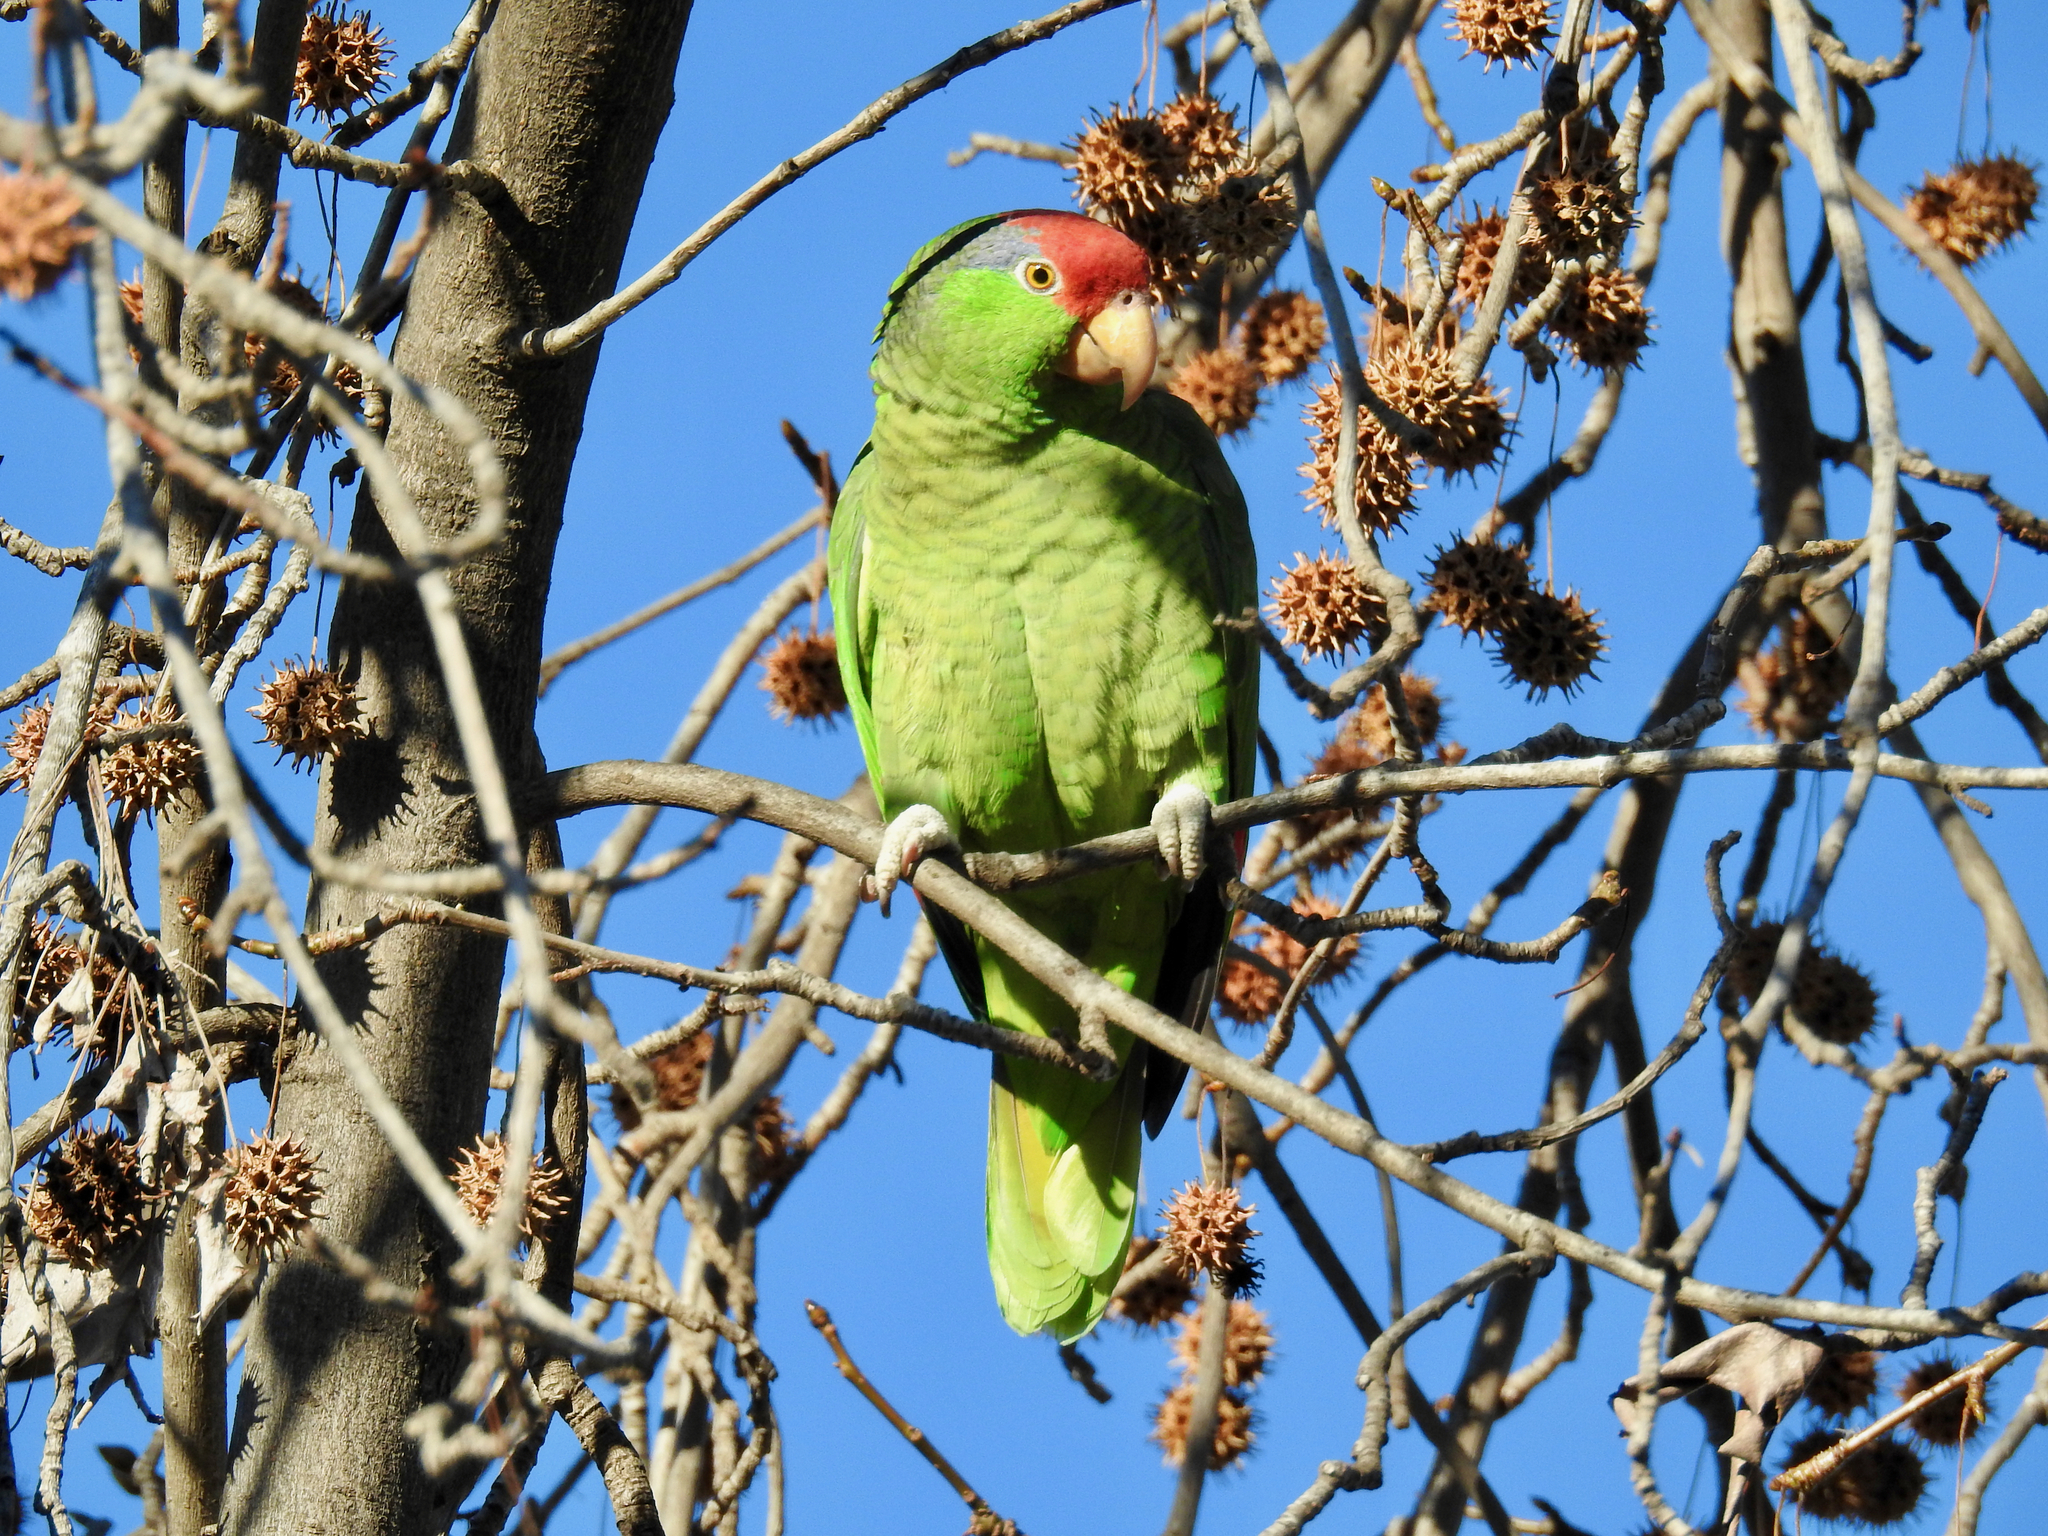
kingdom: Animalia
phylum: Chordata
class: Aves
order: Psittaciformes
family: Psittacidae
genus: Amazona
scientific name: Amazona viridigenalis
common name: Red-crowned amazon
